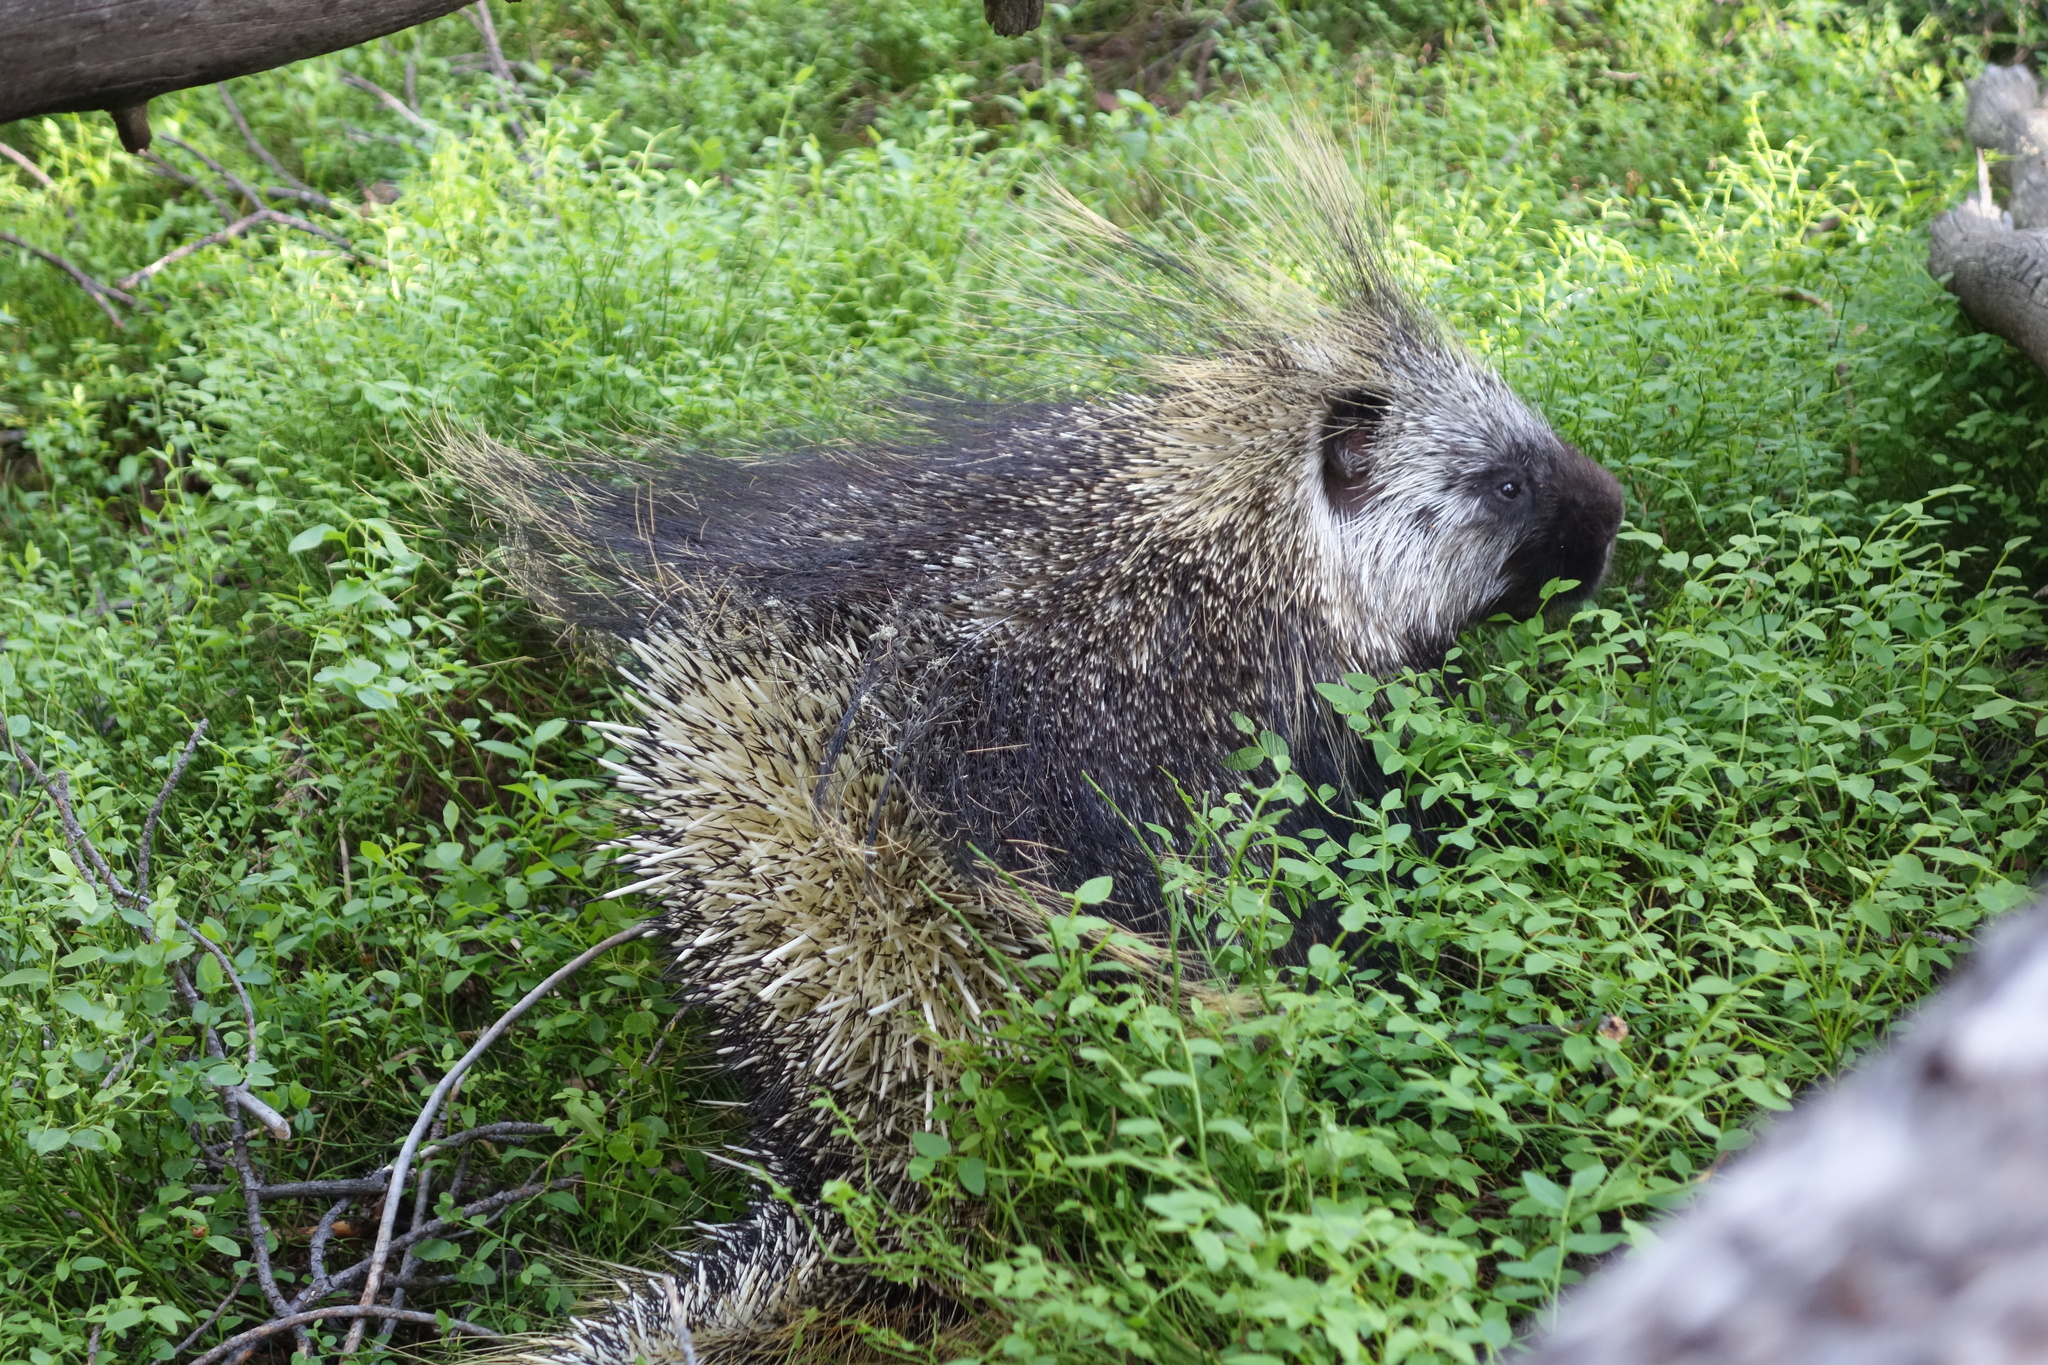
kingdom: Animalia
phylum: Chordata
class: Mammalia
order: Rodentia
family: Erethizontidae
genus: Erethizon
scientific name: Erethizon dorsatus
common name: North american porcupine
